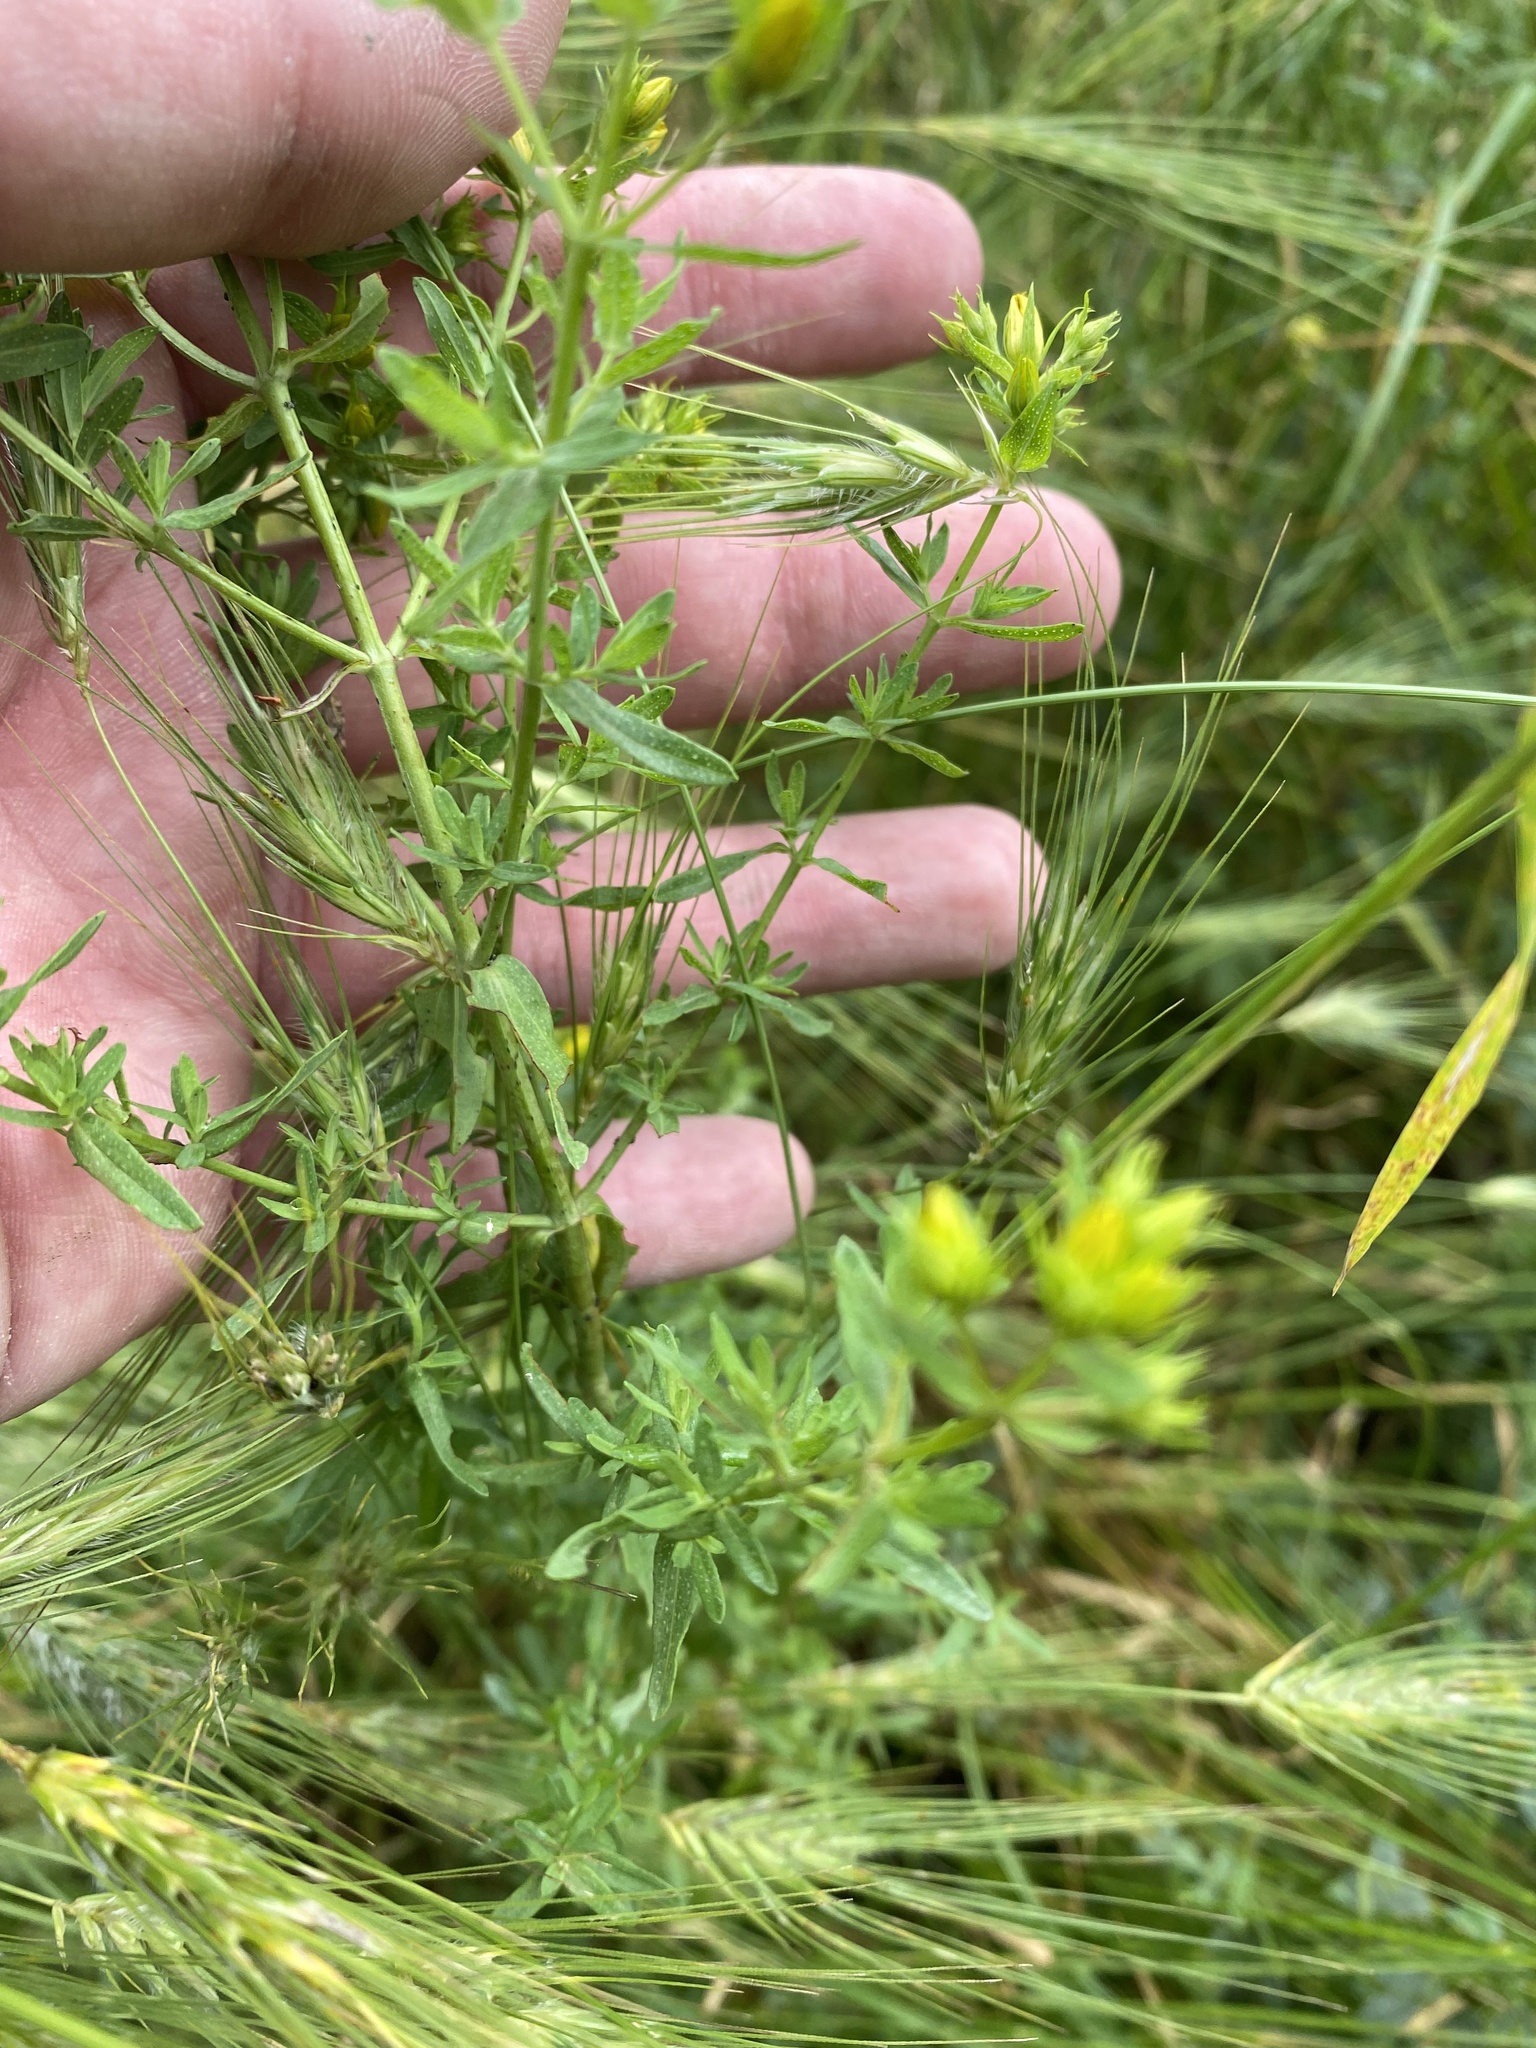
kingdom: Plantae
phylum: Tracheophyta
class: Magnoliopsida
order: Malpighiales
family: Hypericaceae
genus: Hypericum
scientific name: Hypericum perforatum
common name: Common st. johnswort
